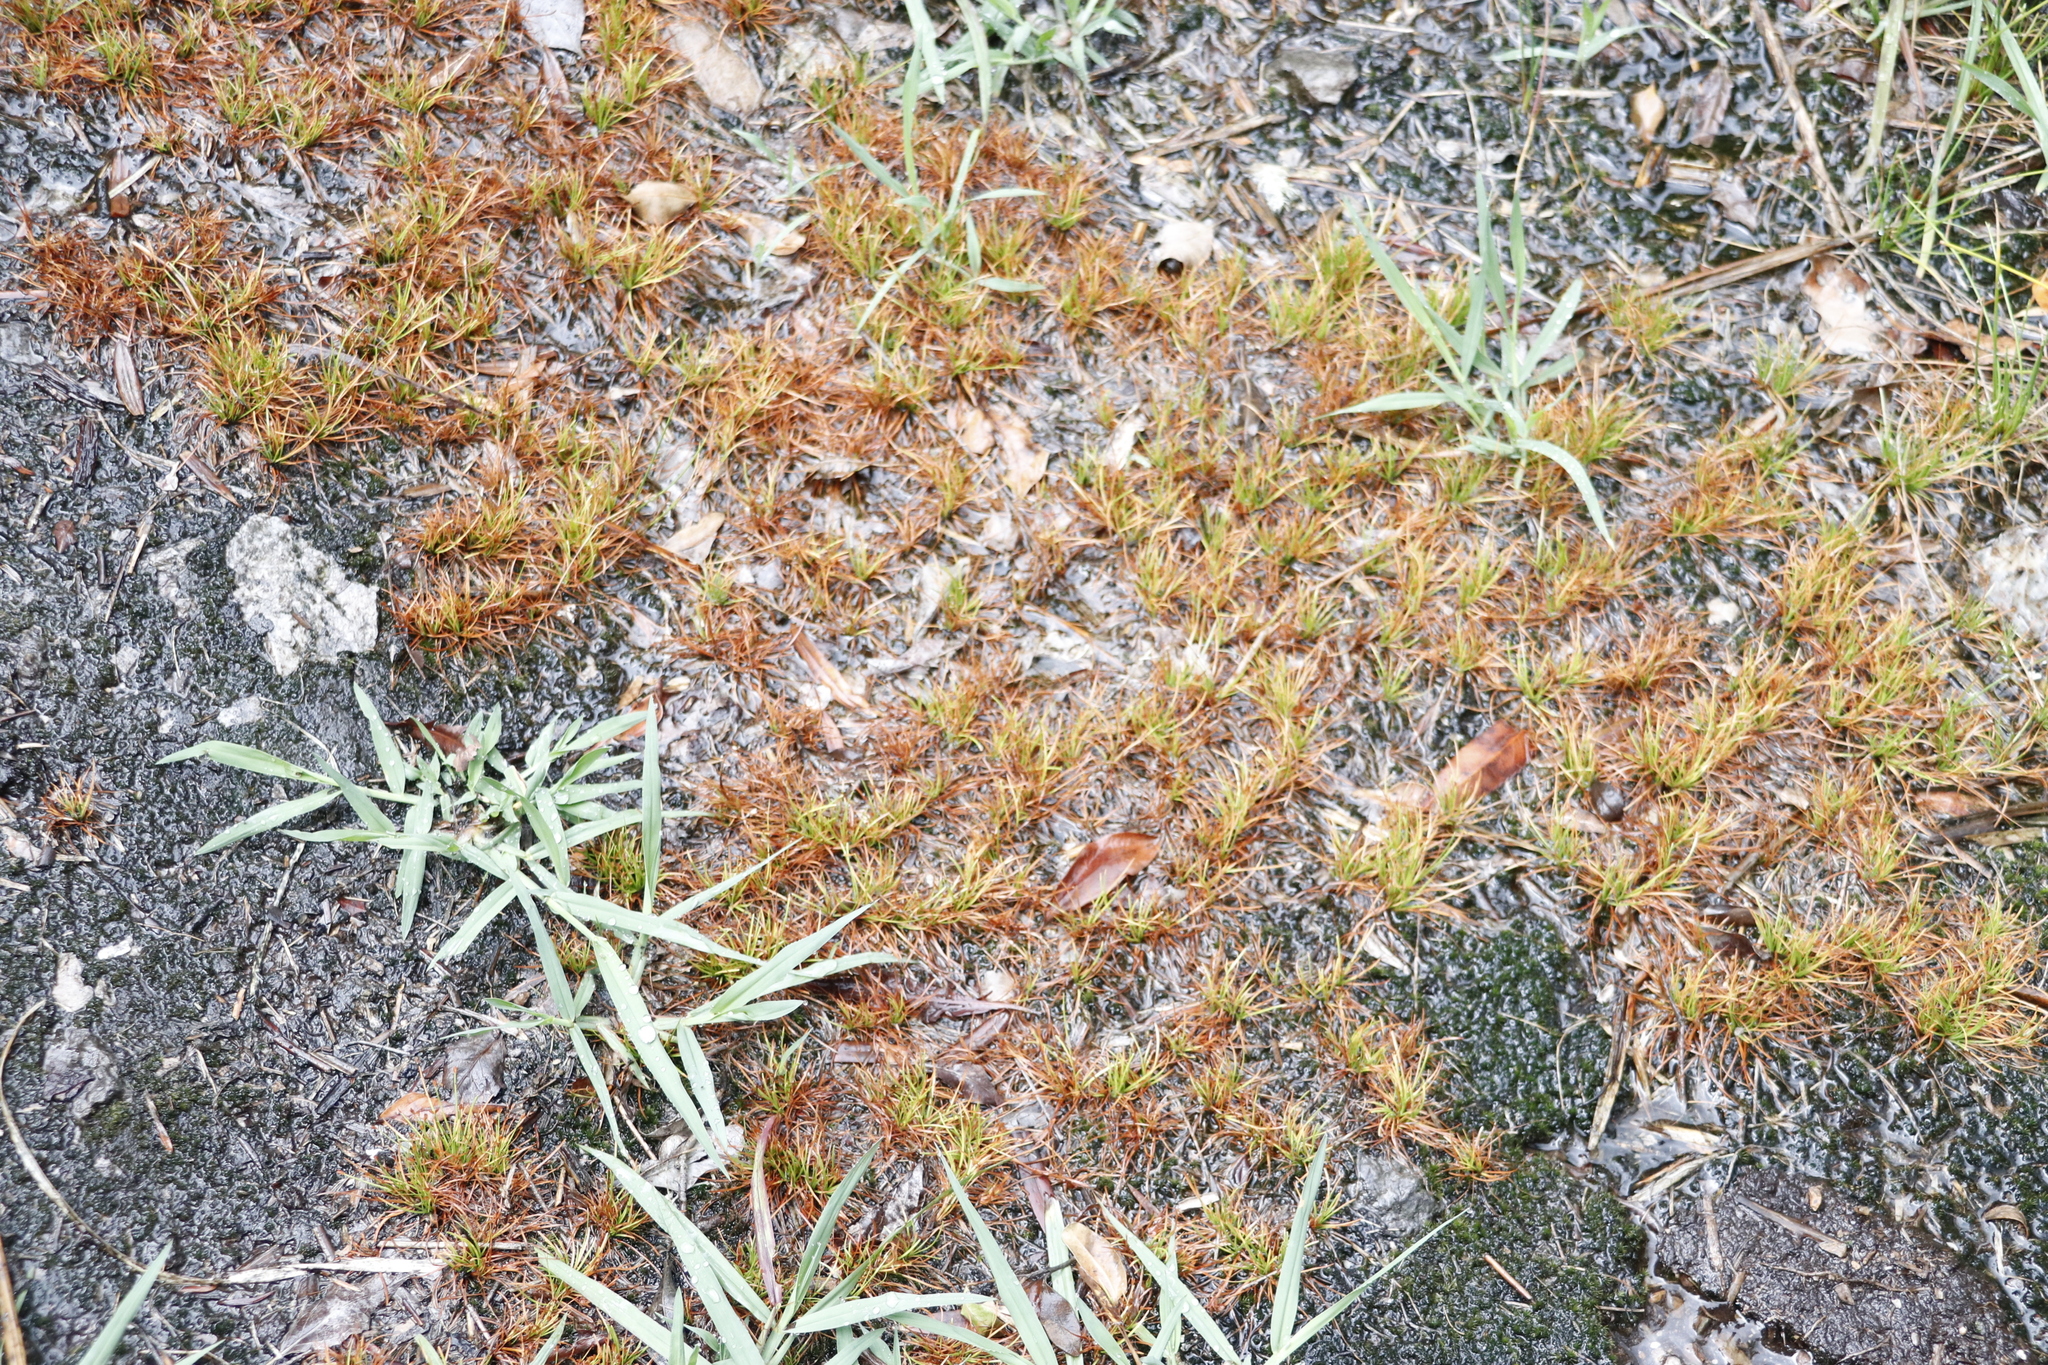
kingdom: Plantae
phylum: Tracheophyta
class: Liliopsida
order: Poales
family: Cyperaceae
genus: Isolepis
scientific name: Isolepis ludwigii
